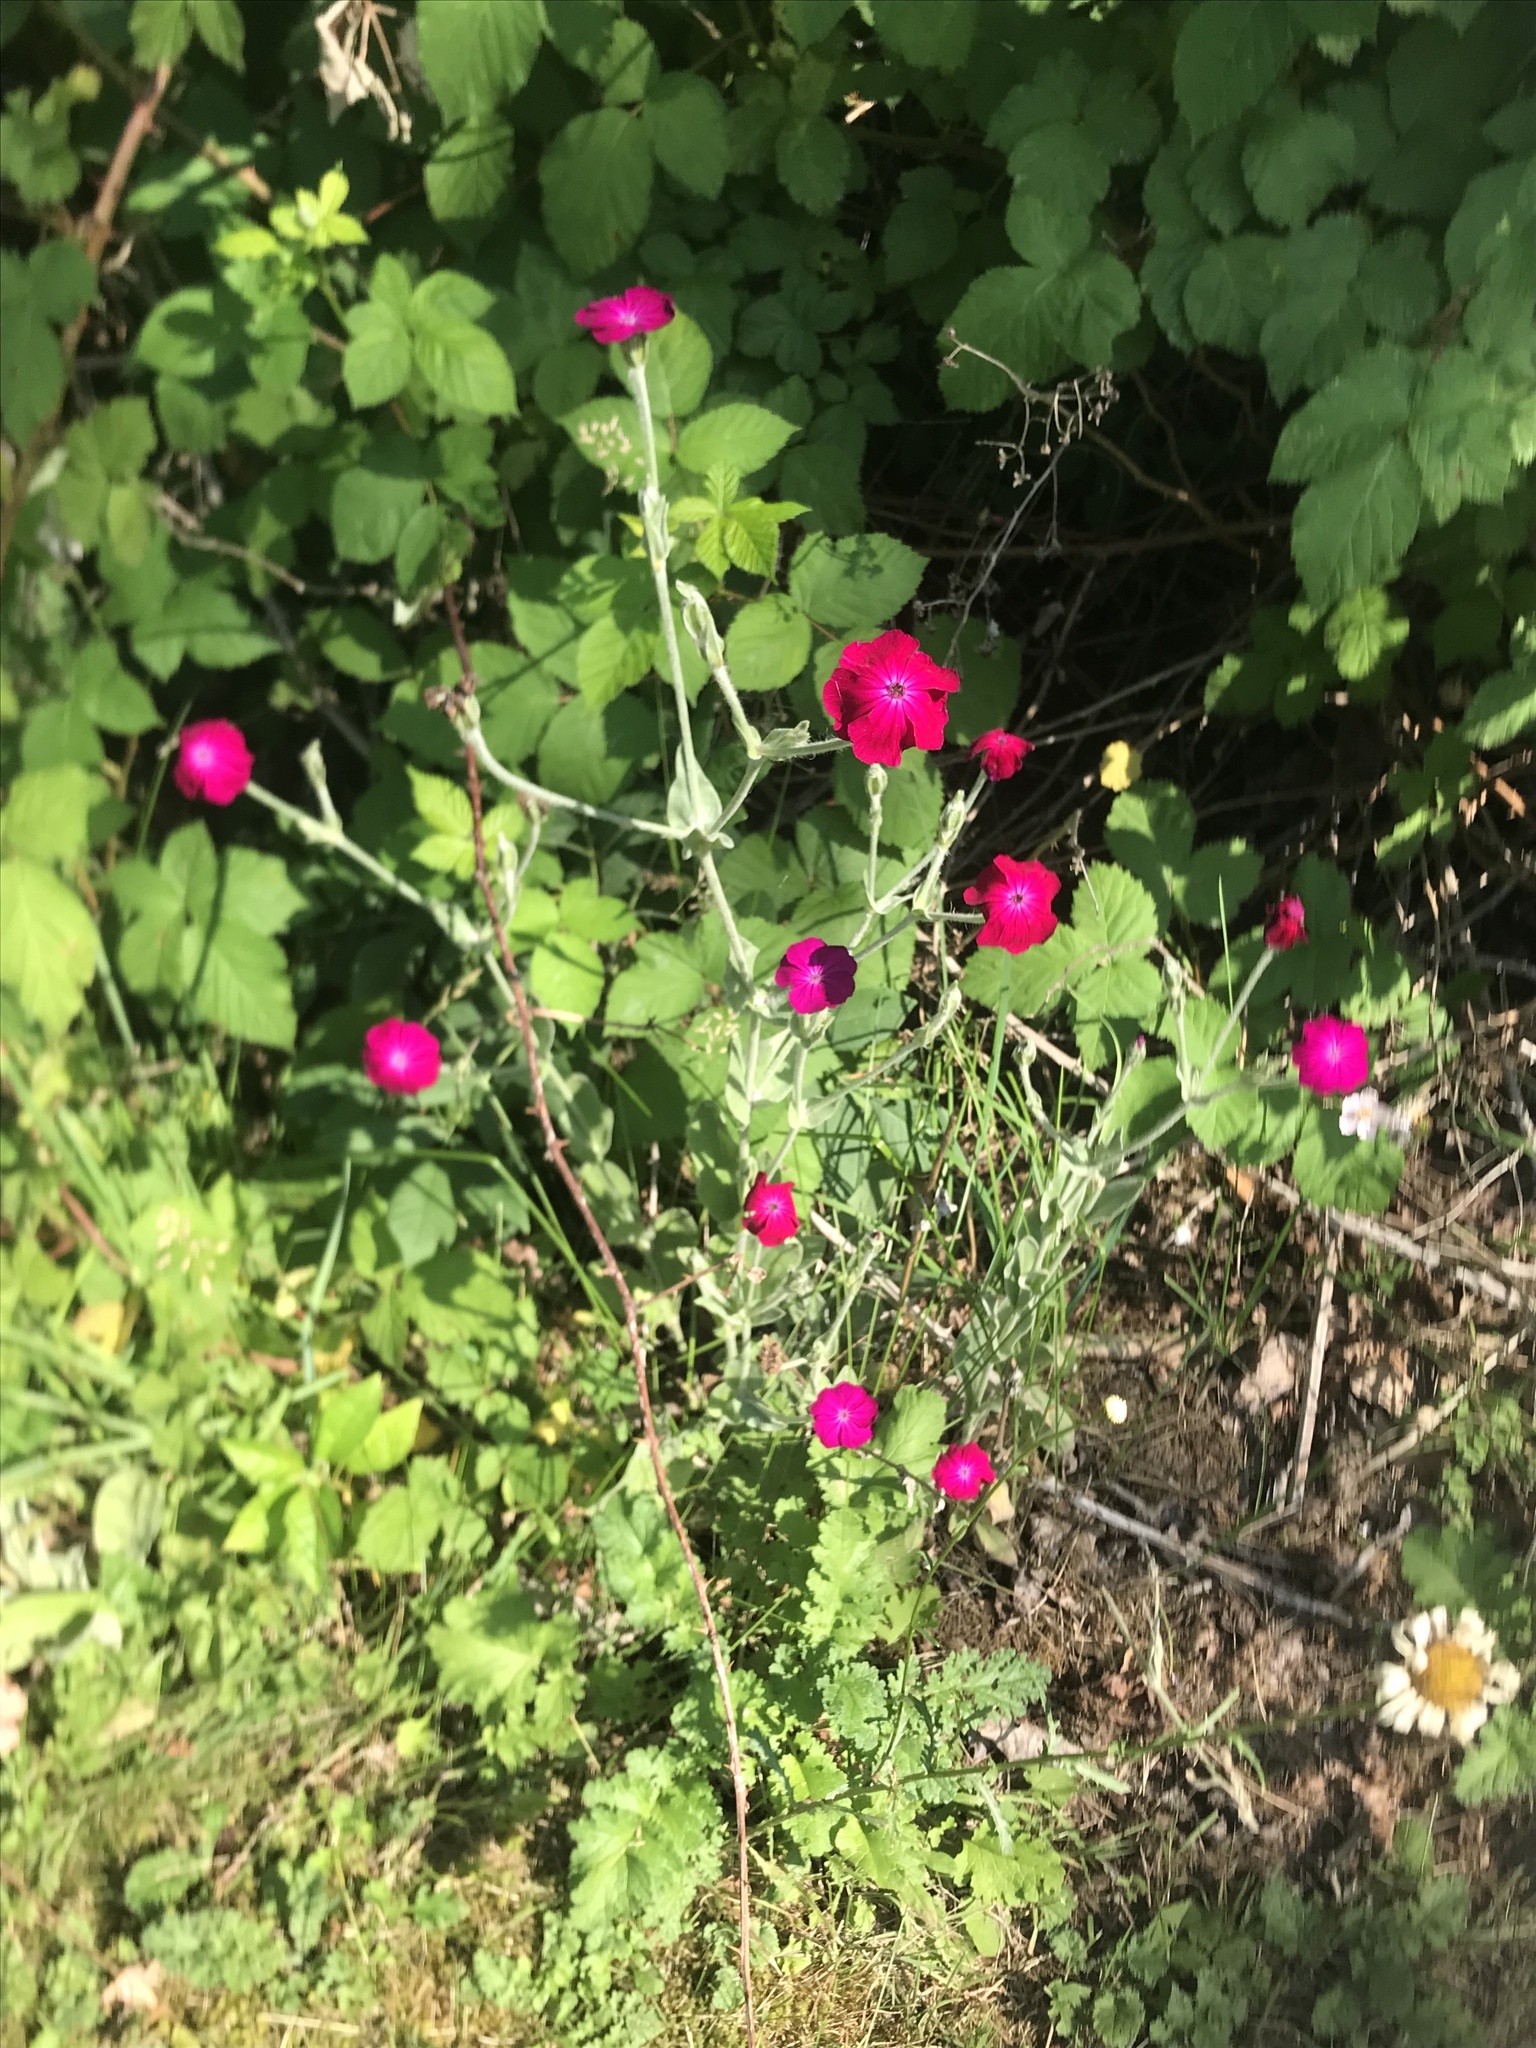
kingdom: Plantae
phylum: Tracheophyta
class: Magnoliopsida
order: Caryophyllales
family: Caryophyllaceae
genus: Silene
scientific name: Silene coronaria
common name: Rose campion
